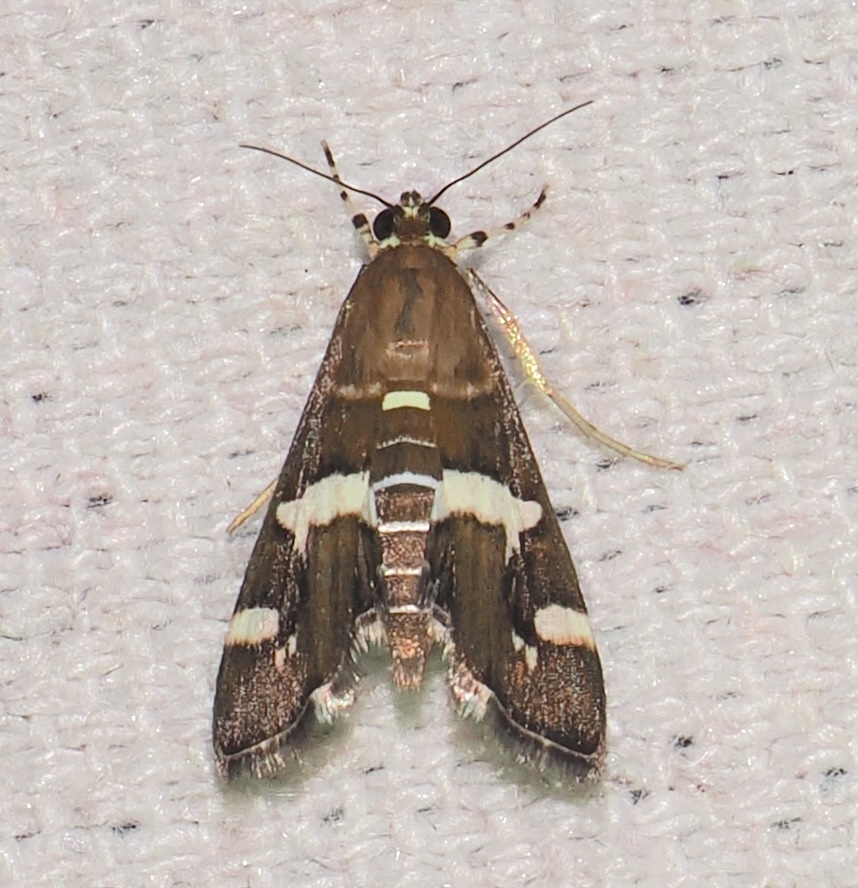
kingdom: Animalia
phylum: Arthropoda
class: Insecta
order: Lepidoptera
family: Crambidae
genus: Spoladea
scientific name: Spoladea recurvalis
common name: Beet webworm moth
